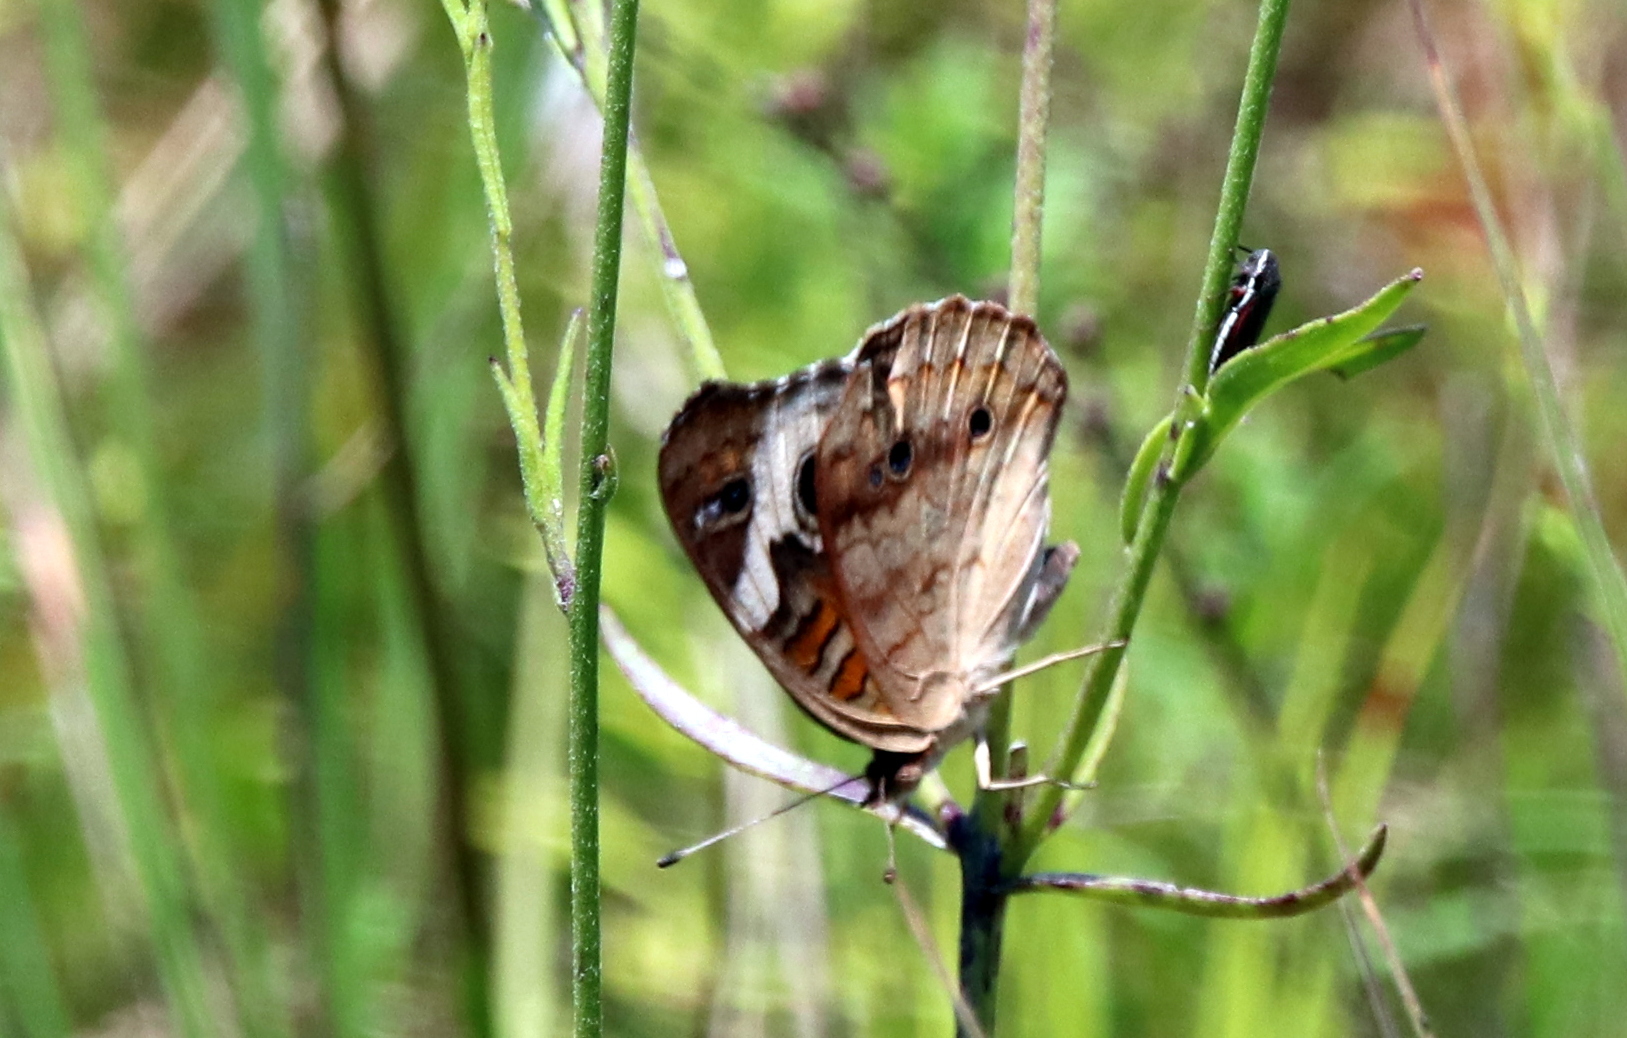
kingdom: Animalia
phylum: Arthropoda
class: Insecta
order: Lepidoptera
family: Nymphalidae
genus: Junonia
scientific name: Junonia coenia
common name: Common buckeye
